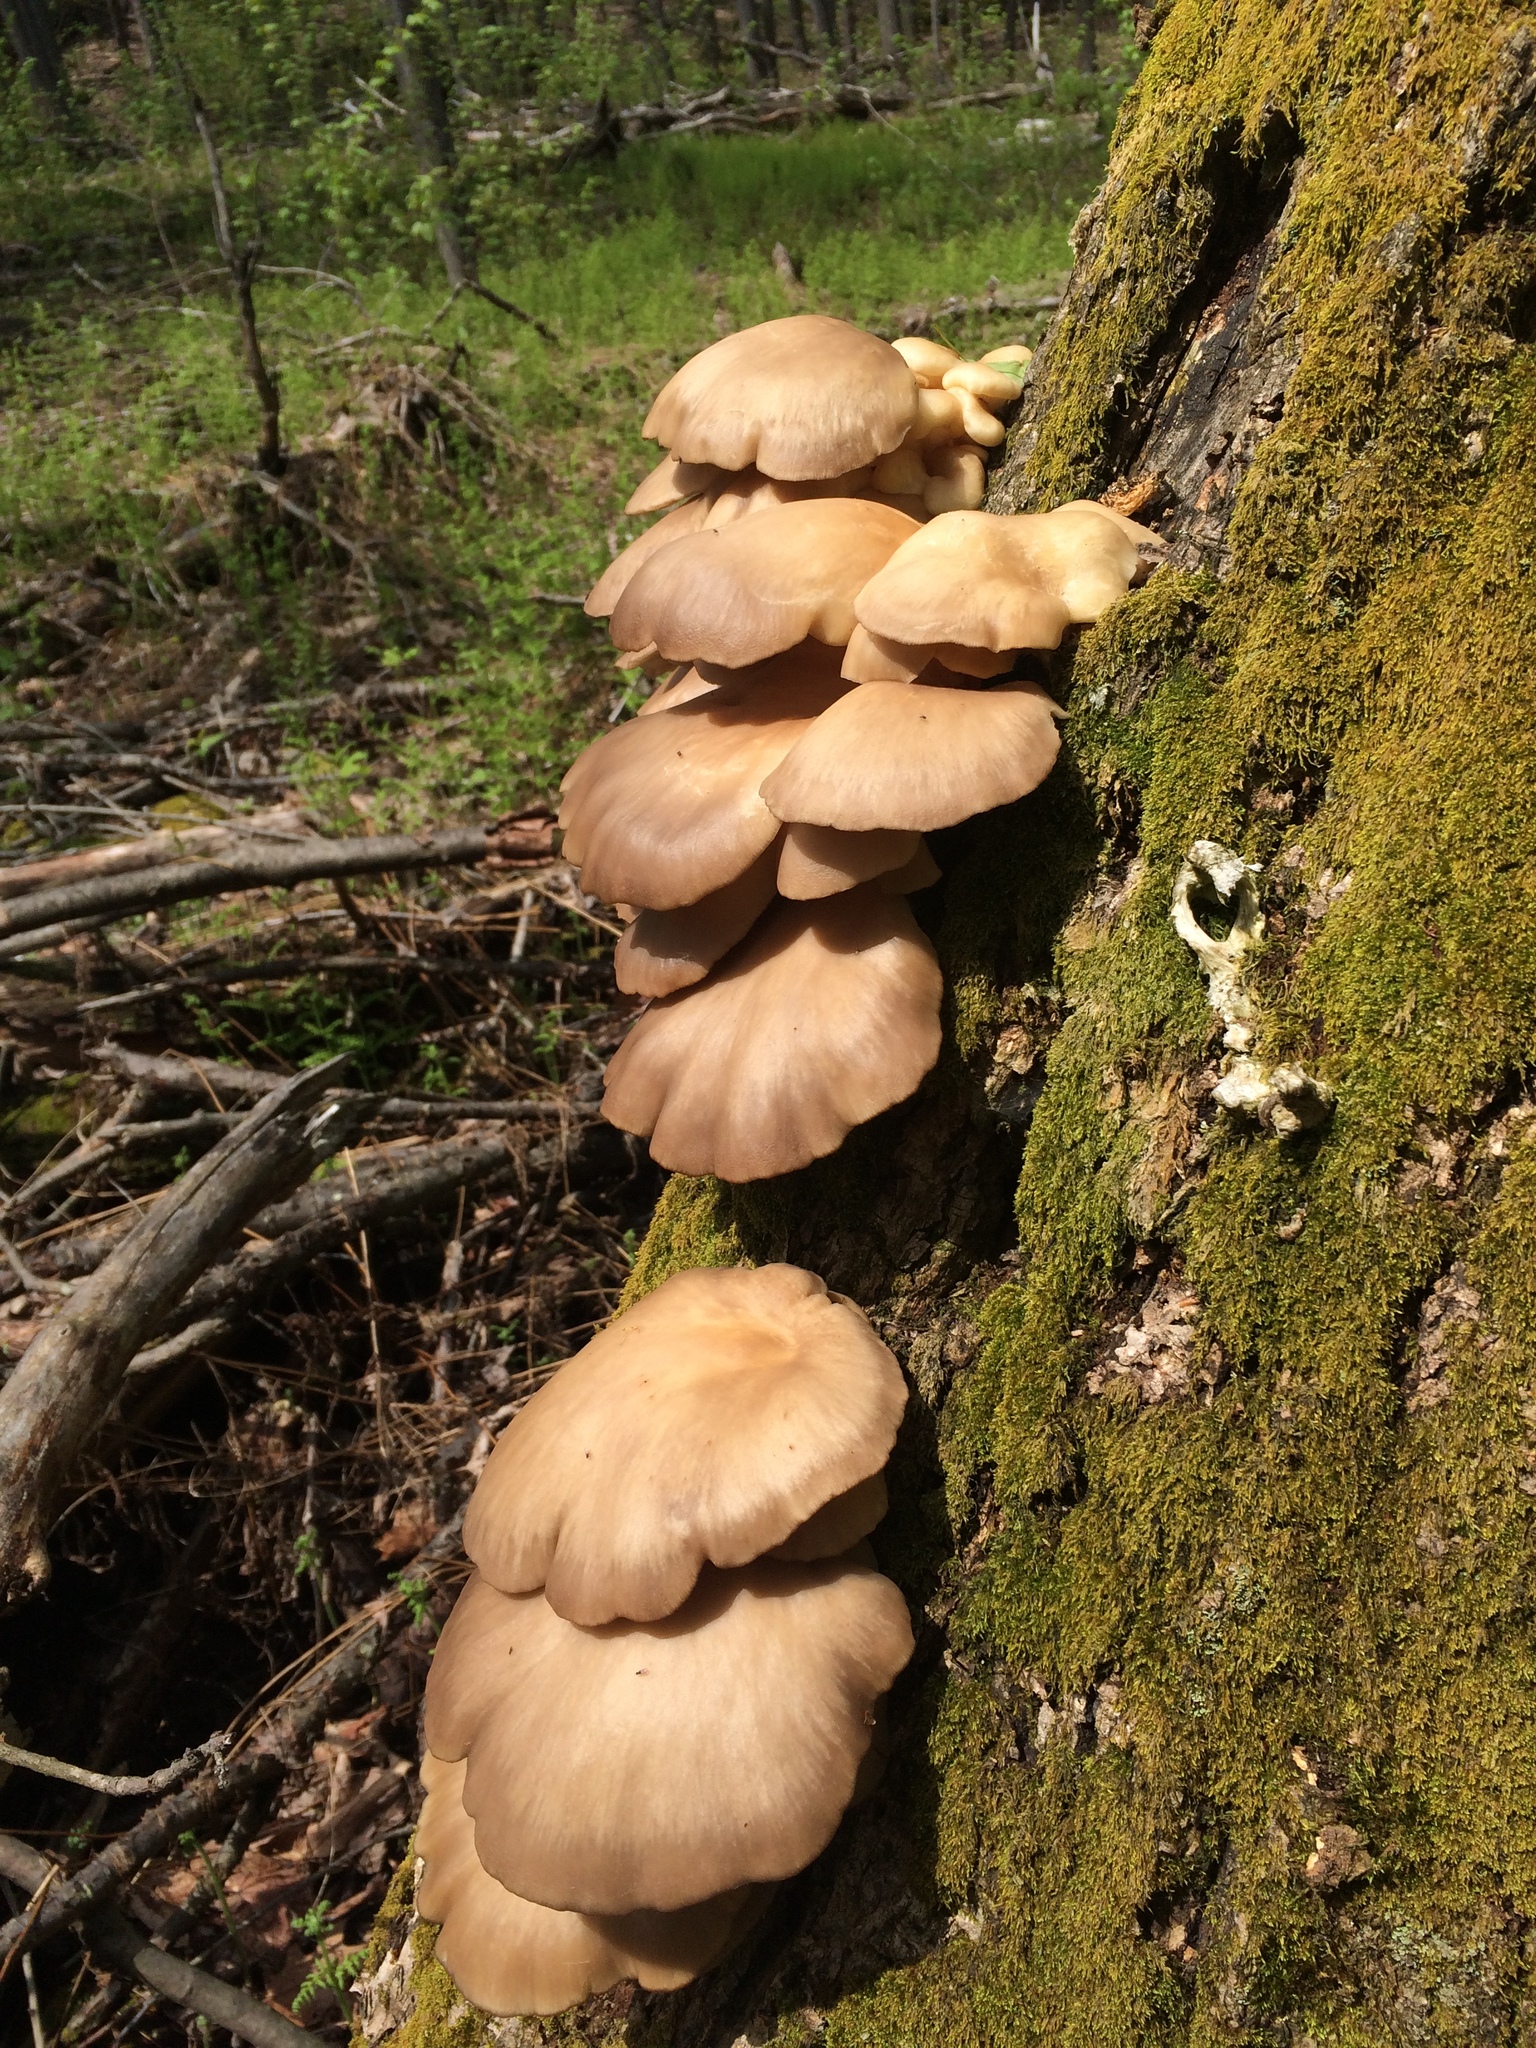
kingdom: Fungi
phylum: Basidiomycota
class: Agaricomycetes
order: Agaricales
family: Pleurotaceae
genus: Pleurotus
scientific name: Pleurotus ostreatus
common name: Oyster mushroom
